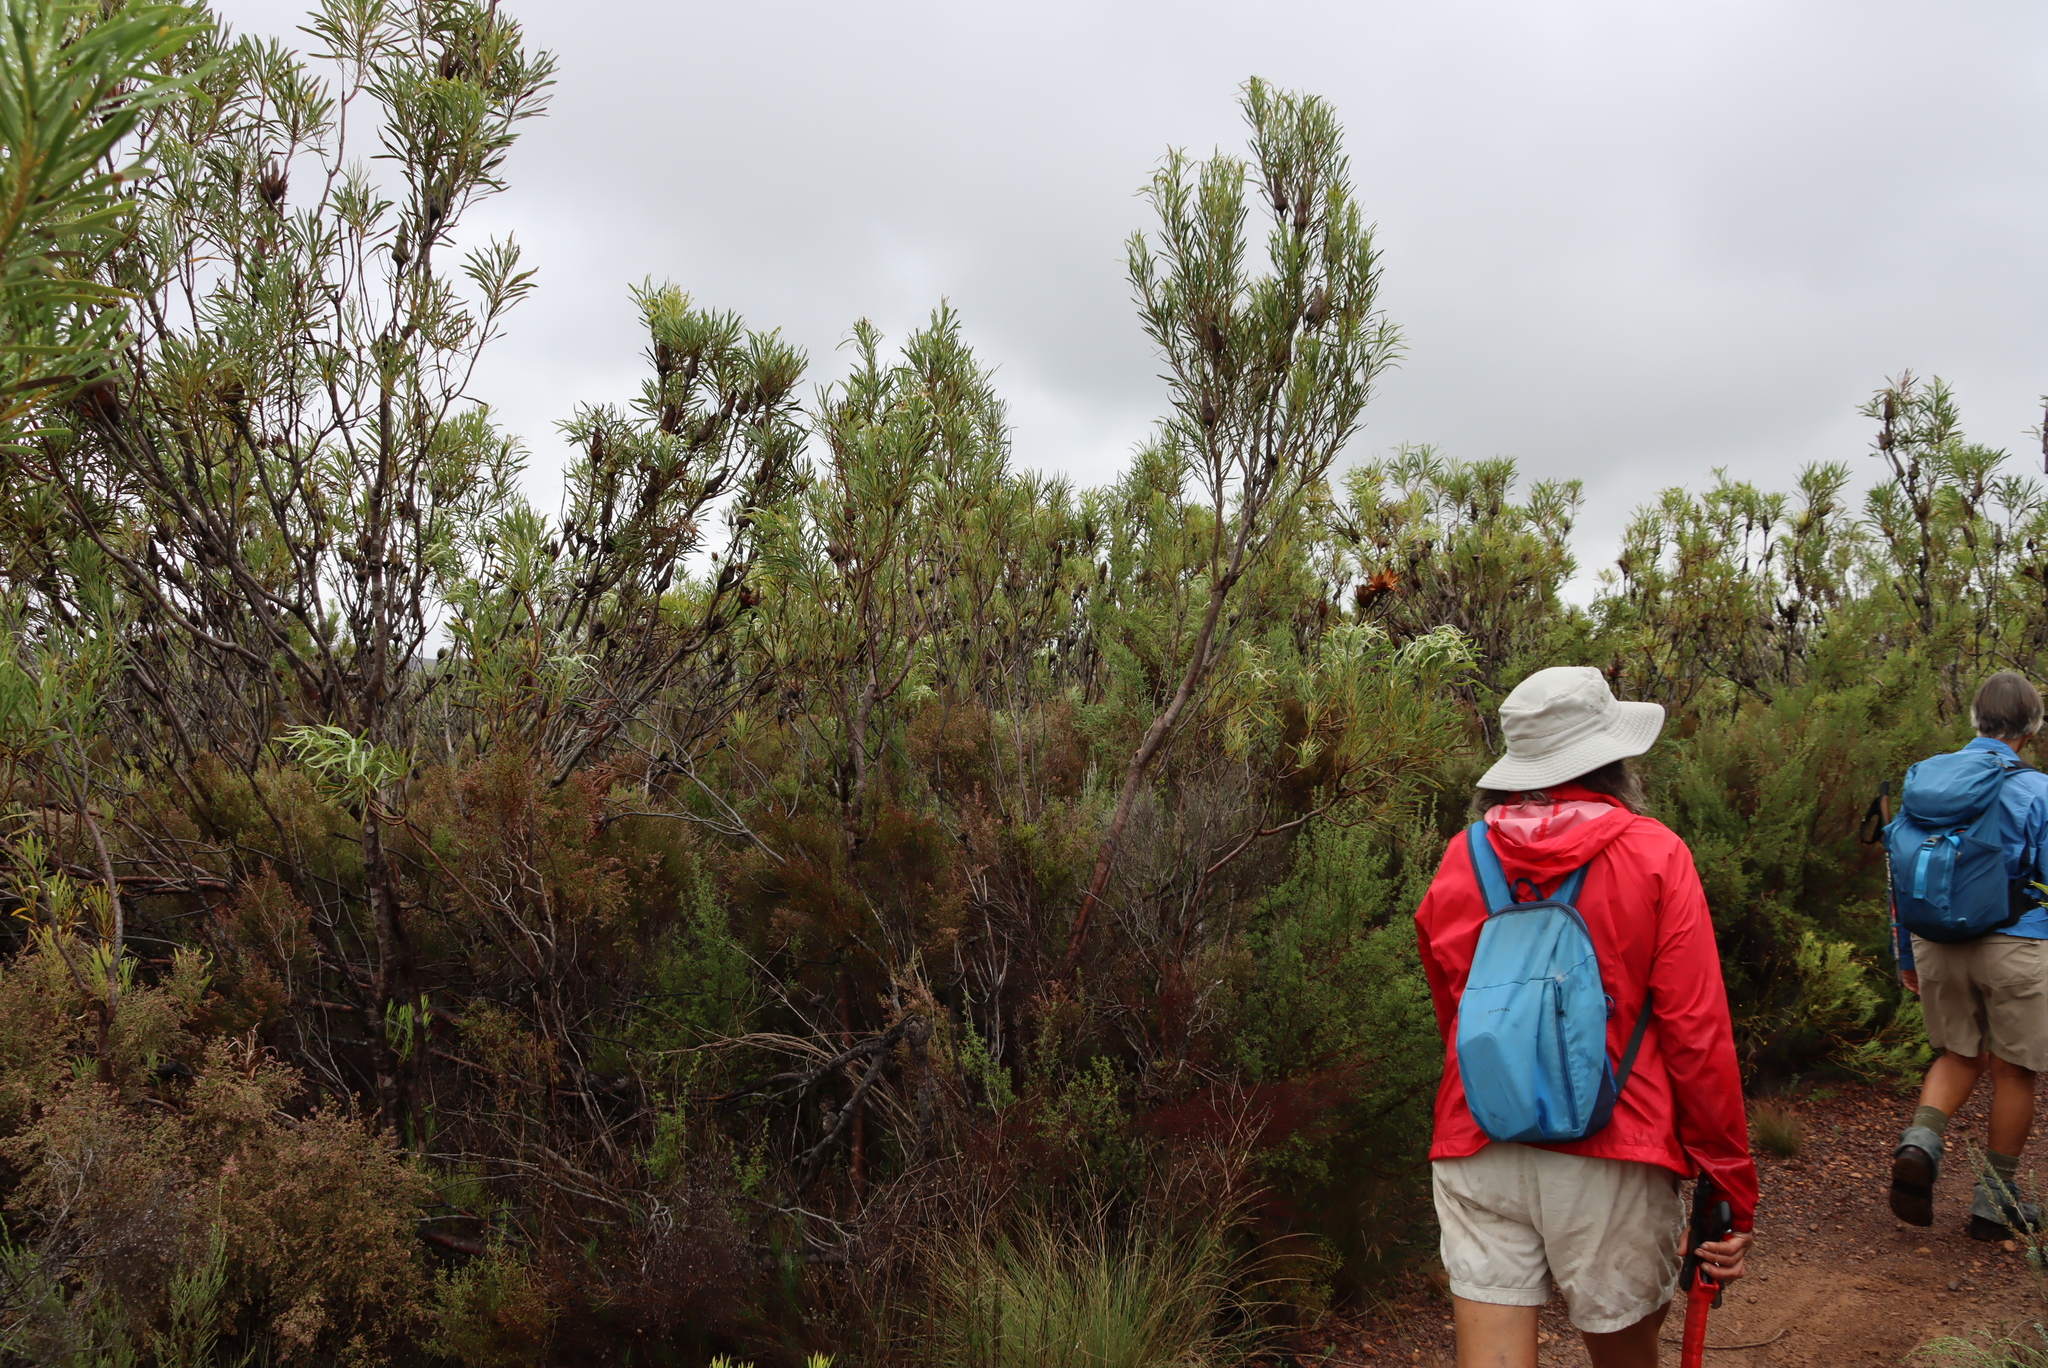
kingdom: Plantae
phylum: Tracheophyta
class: Magnoliopsida
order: Proteales
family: Proteaceae
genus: Protea
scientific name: Protea repens
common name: Sugarbush
